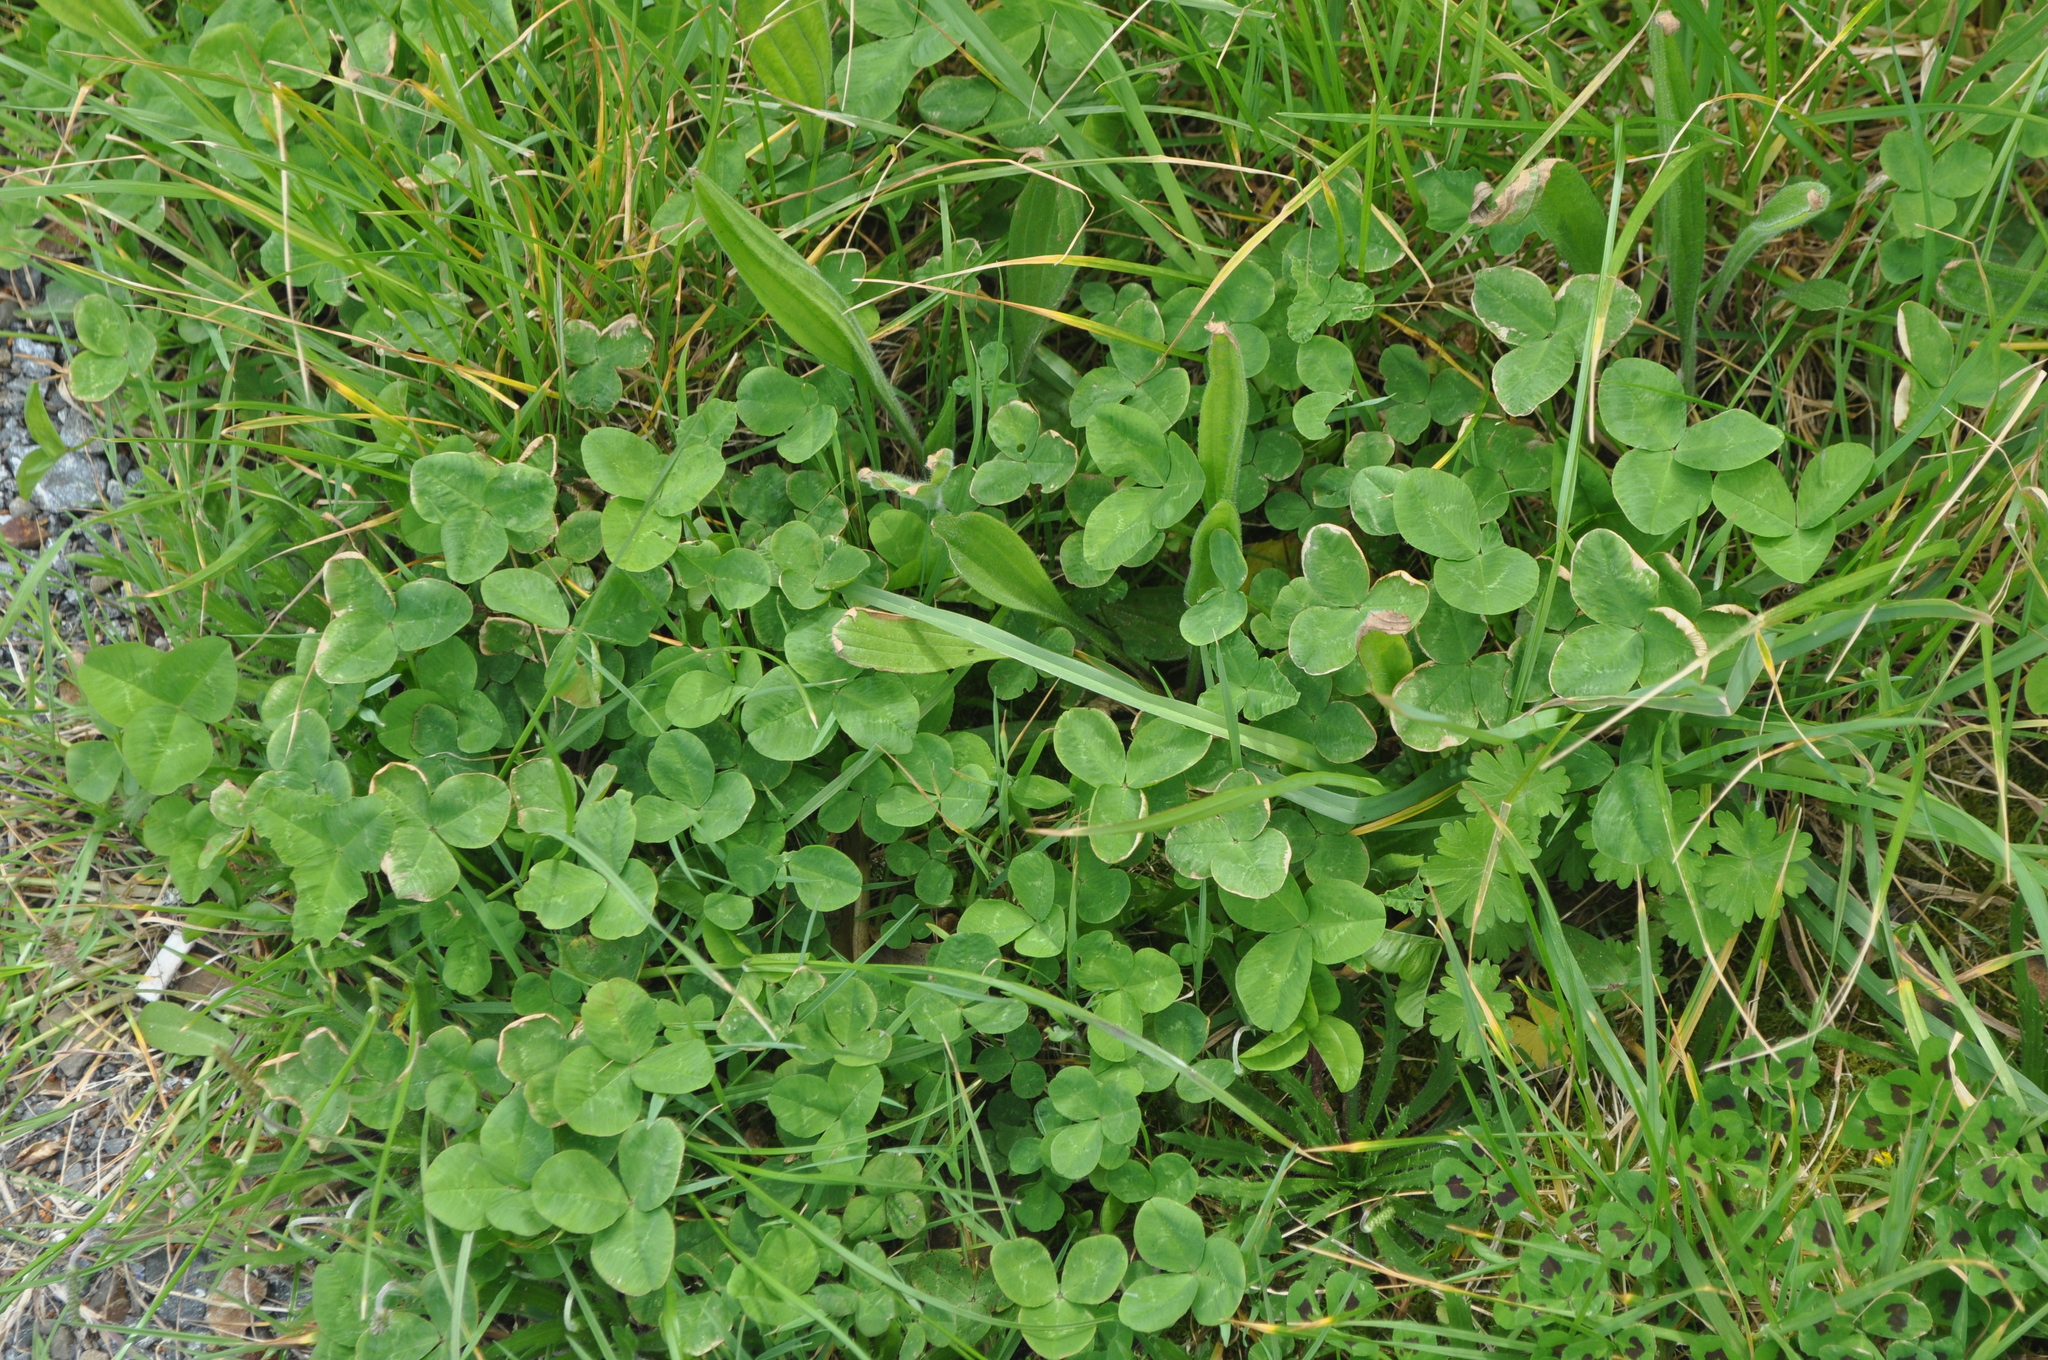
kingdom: Plantae
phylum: Tracheophyta
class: Magnoliopsida
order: Fabales
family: Fabaceae
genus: Trifolium
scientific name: Trifolium repens
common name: White clover
